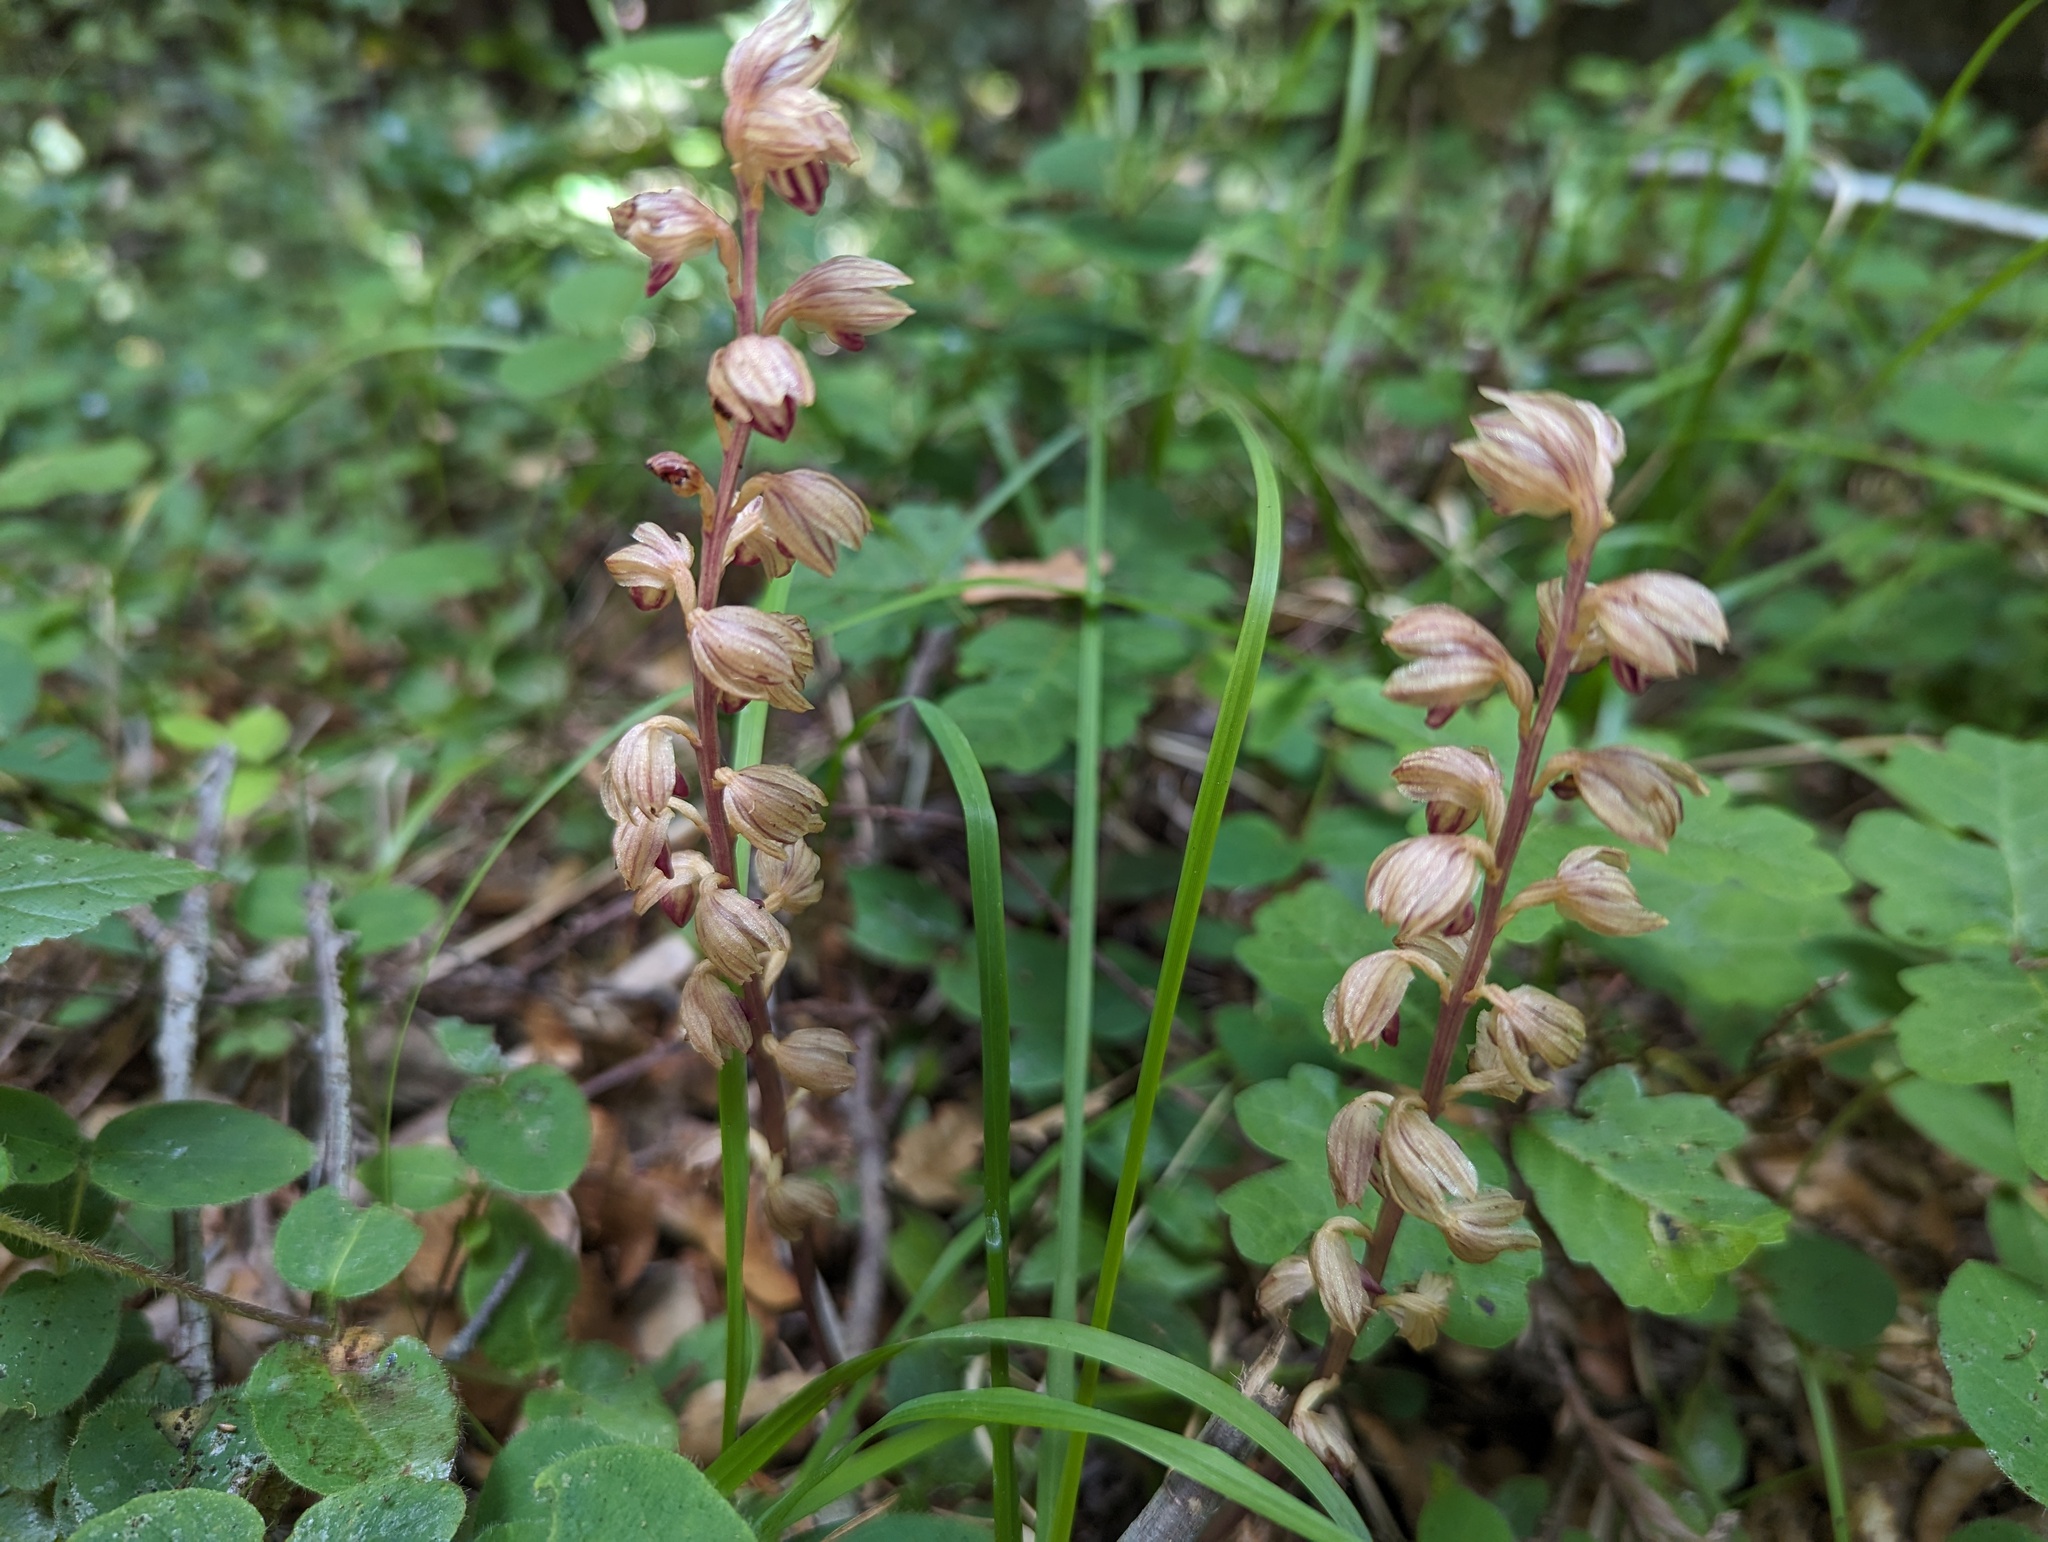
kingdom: Plantae
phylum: Tracheophyta
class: Liliopsida
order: Asparagales
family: Orchidaceae
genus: Corallorhiza
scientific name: Corallorhiza striata
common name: Hooded coralroot
